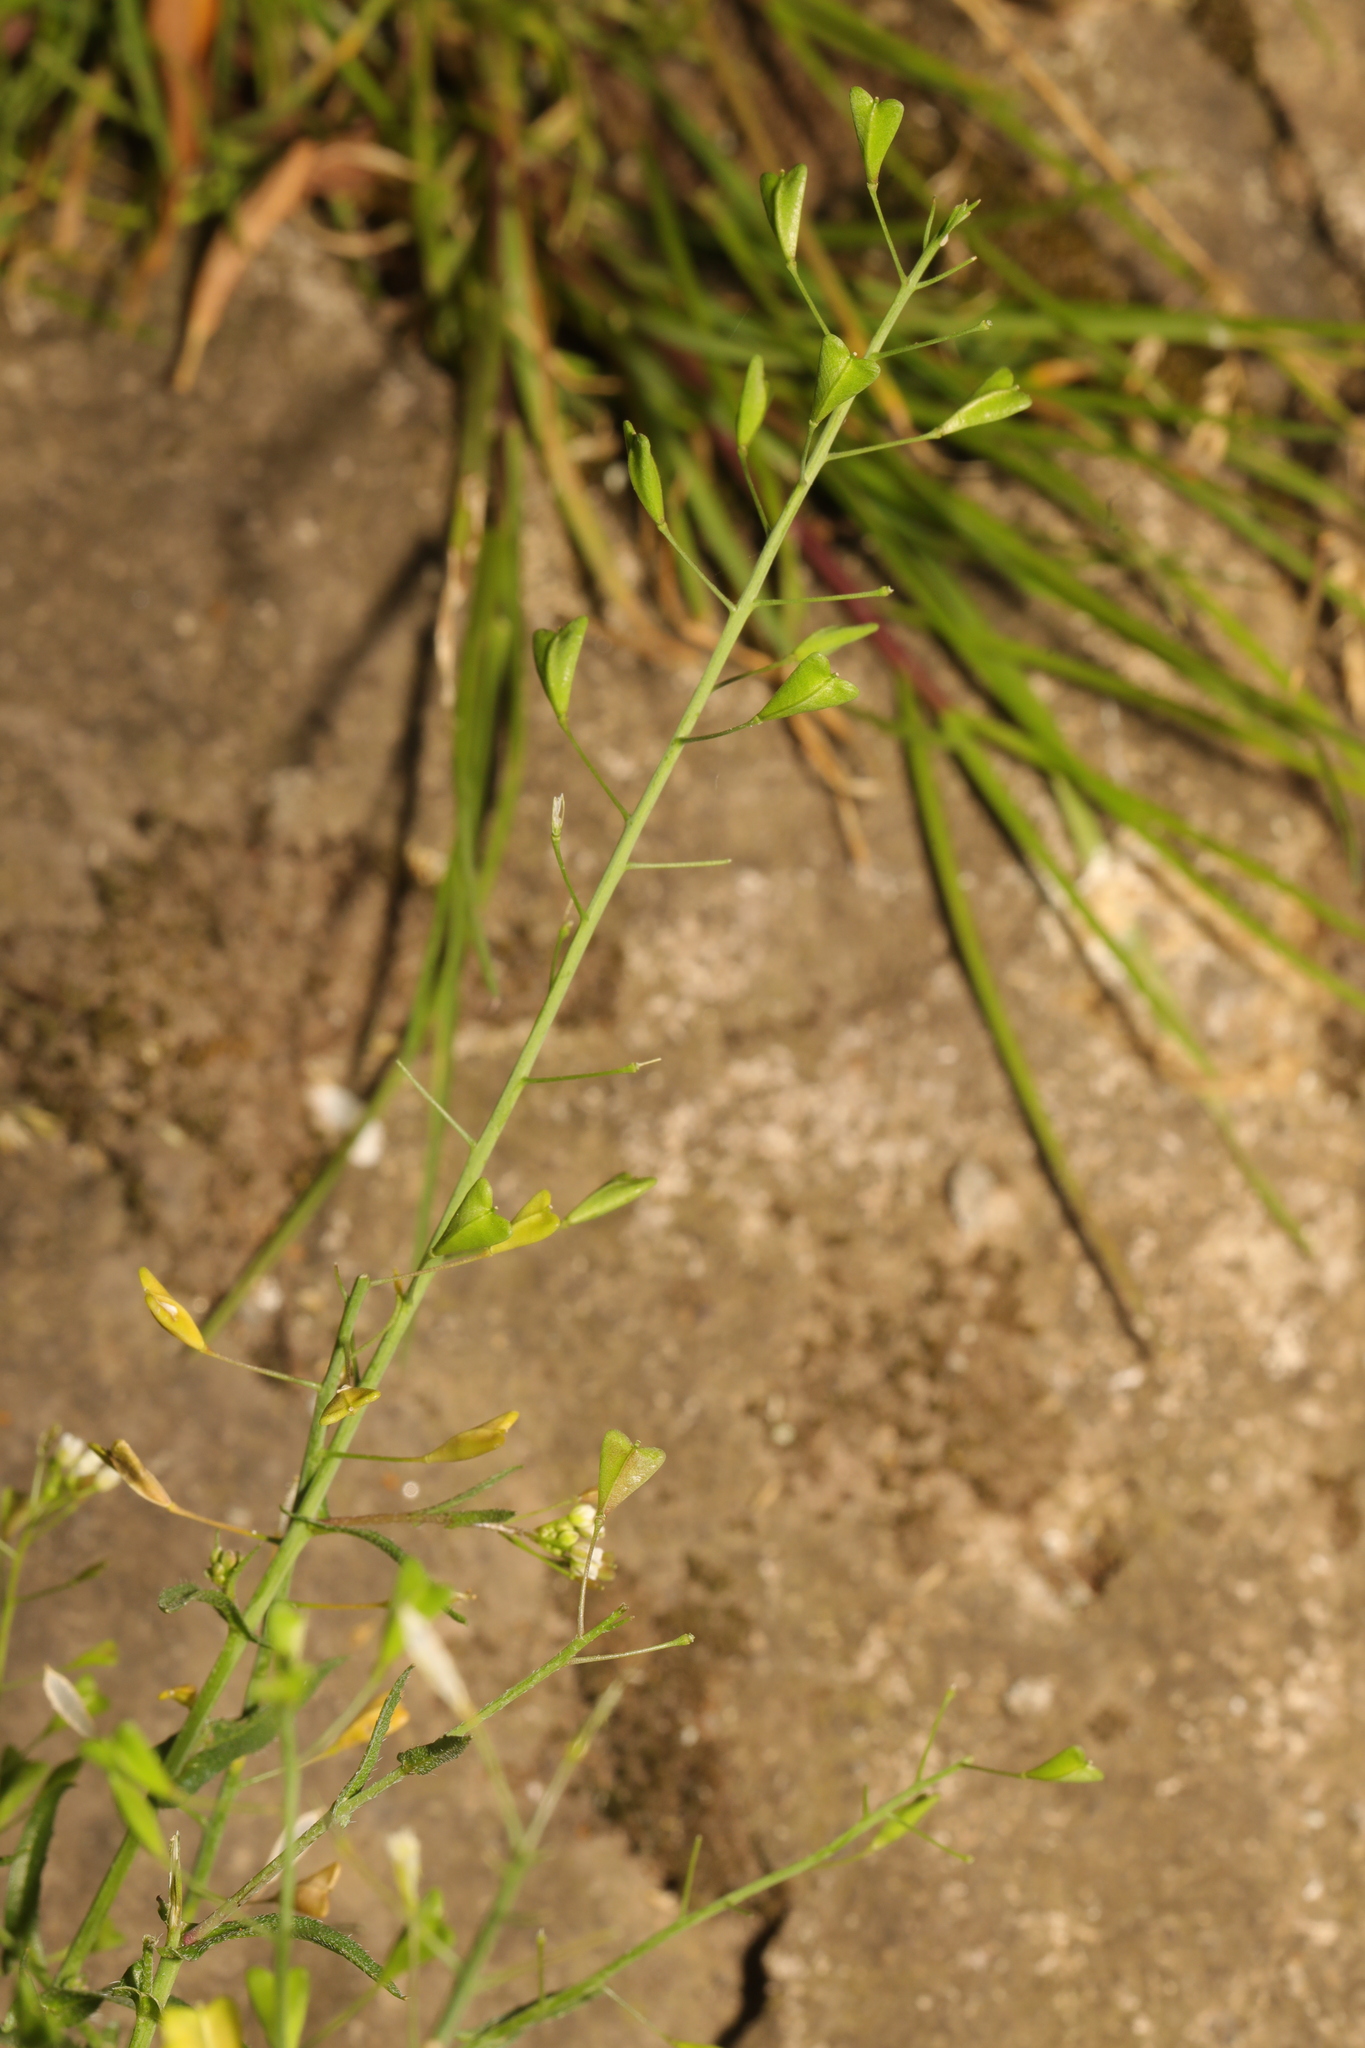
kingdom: Plantae
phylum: Tracheophyta
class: Magnoliopsida
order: Brassicales
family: Brassicaceae
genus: Capsella
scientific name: Capsella bursa-pastoris
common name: Shepherd's purse
